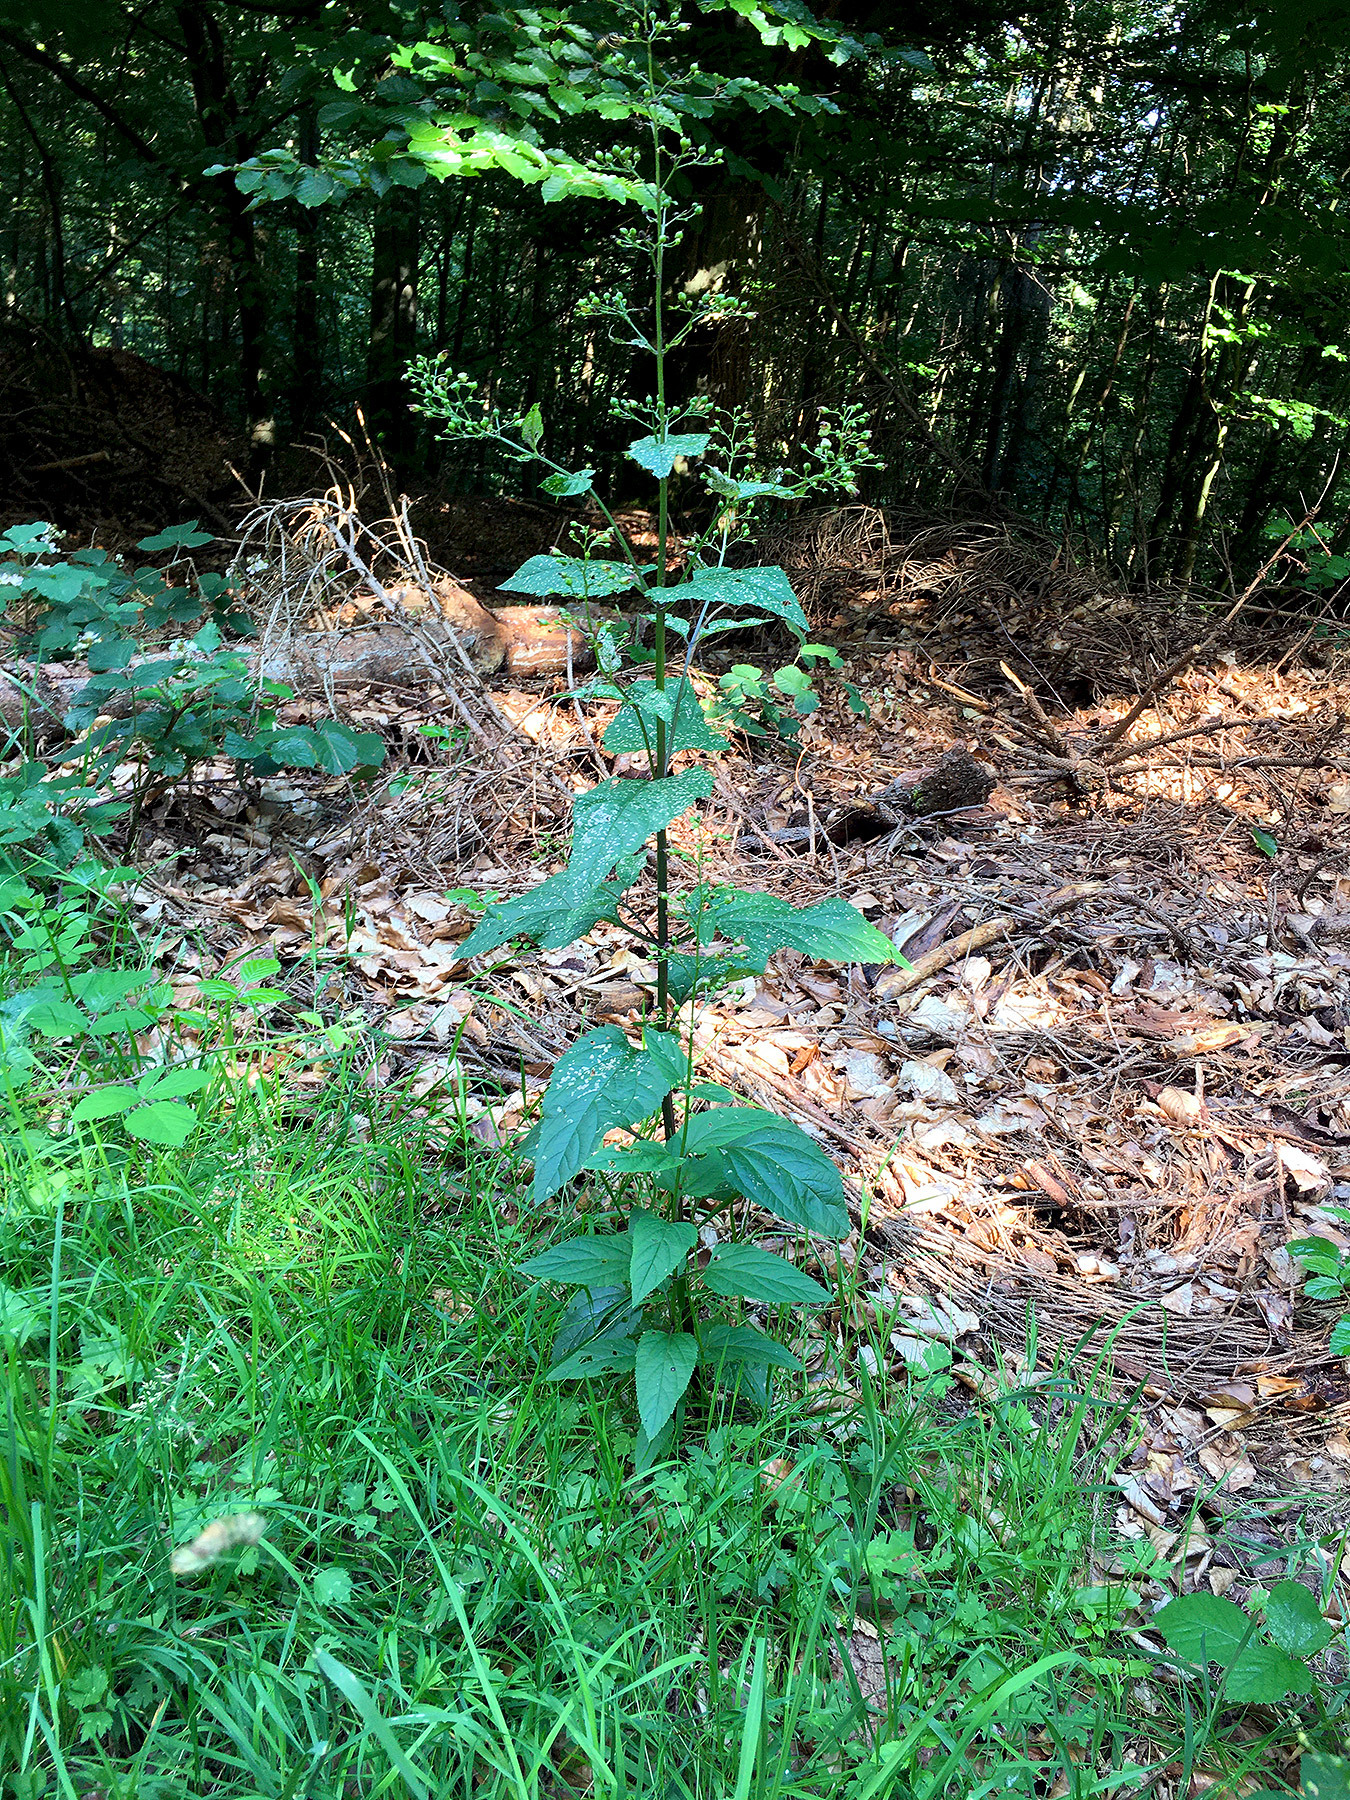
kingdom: Plantae
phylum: Tracheophyta
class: Magnoliopsida
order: Lamiales
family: Scrophulariaceae
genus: Scrophularia
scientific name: Scrophularia nodosa
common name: Common figwort
